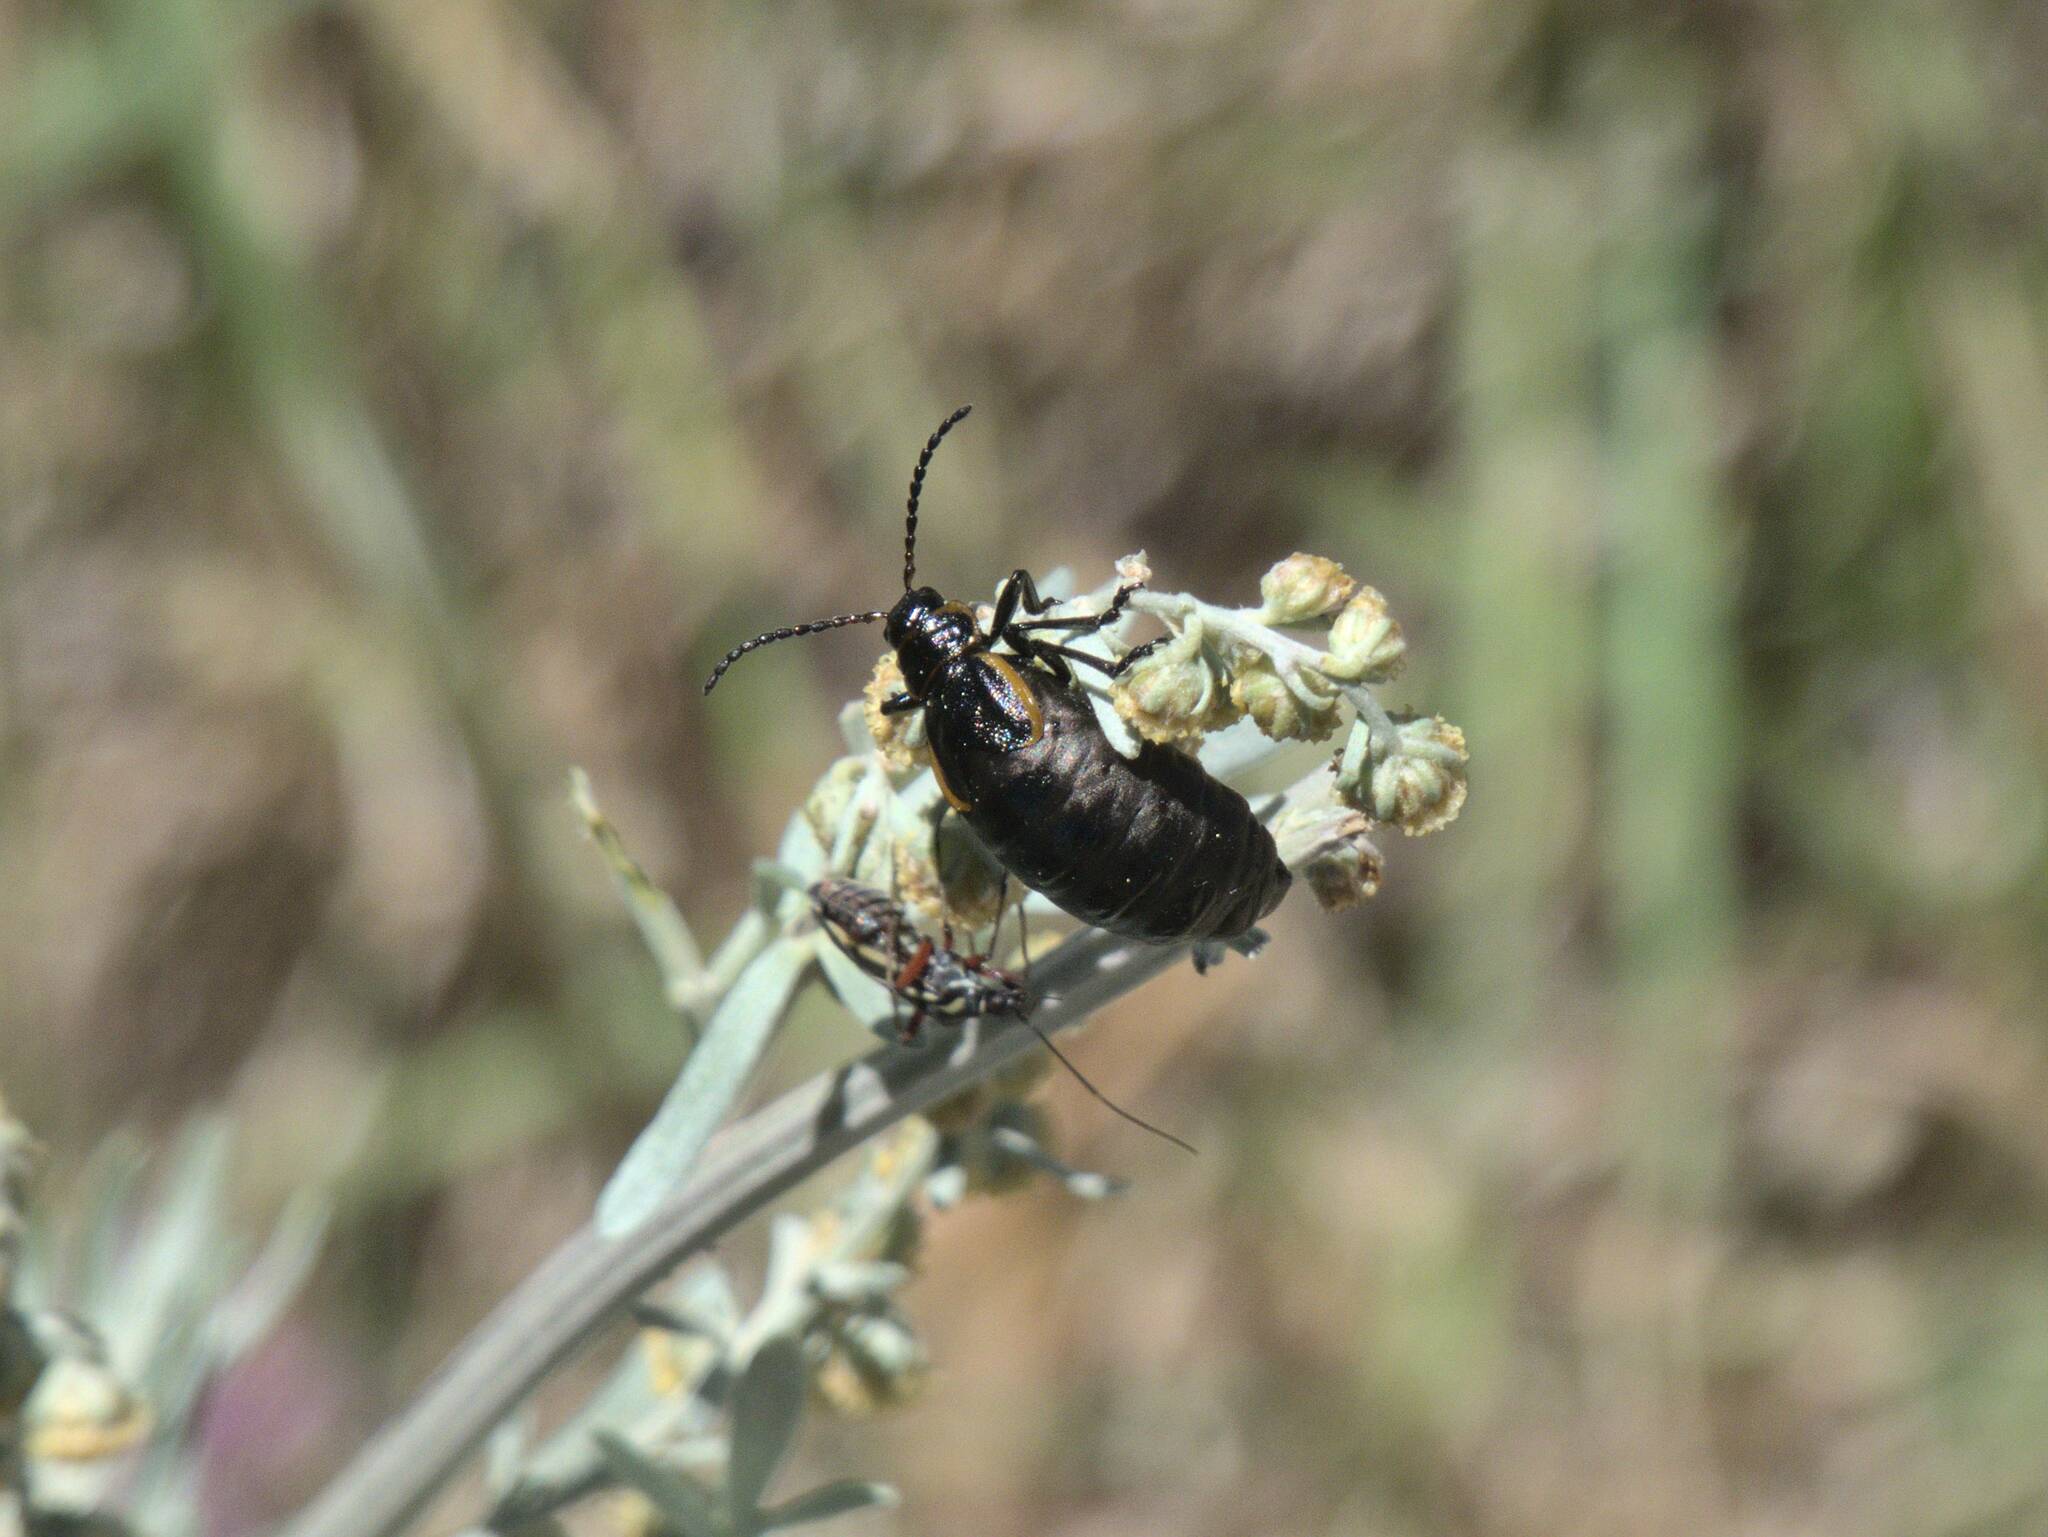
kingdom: Animalia
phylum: Arthropoda
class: Insecta
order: Coleoptera
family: Chrysomelidae
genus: Arima
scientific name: Arima marginata
